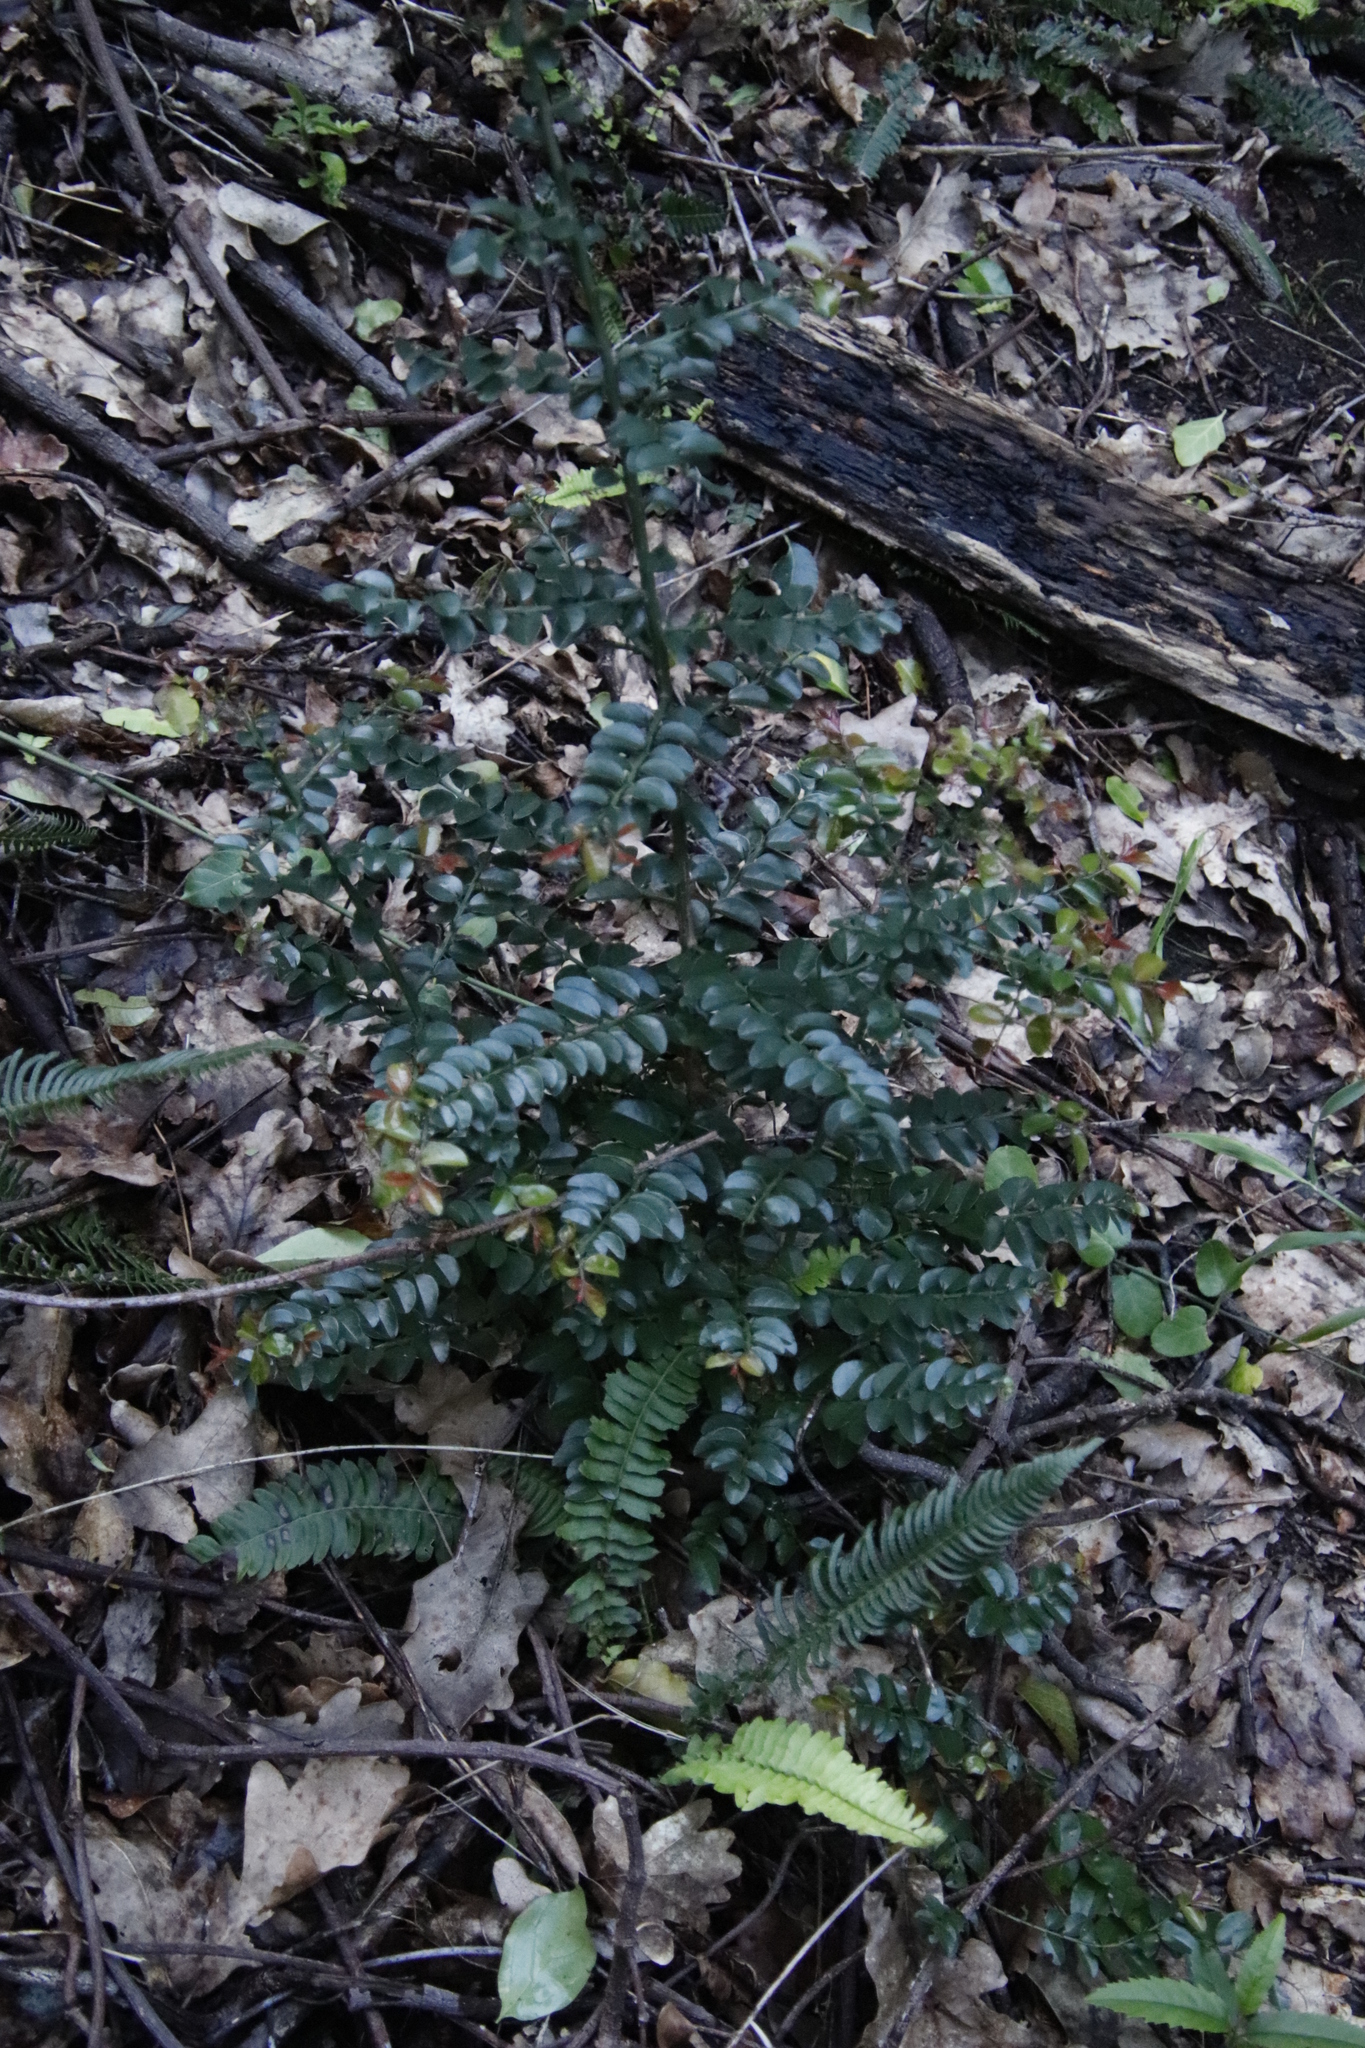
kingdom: Plantae
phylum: Tracheophyta
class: Magnoliopsida
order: Rosales
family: Rhamnaceae
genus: Scutia
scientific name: Scutia myrtina
